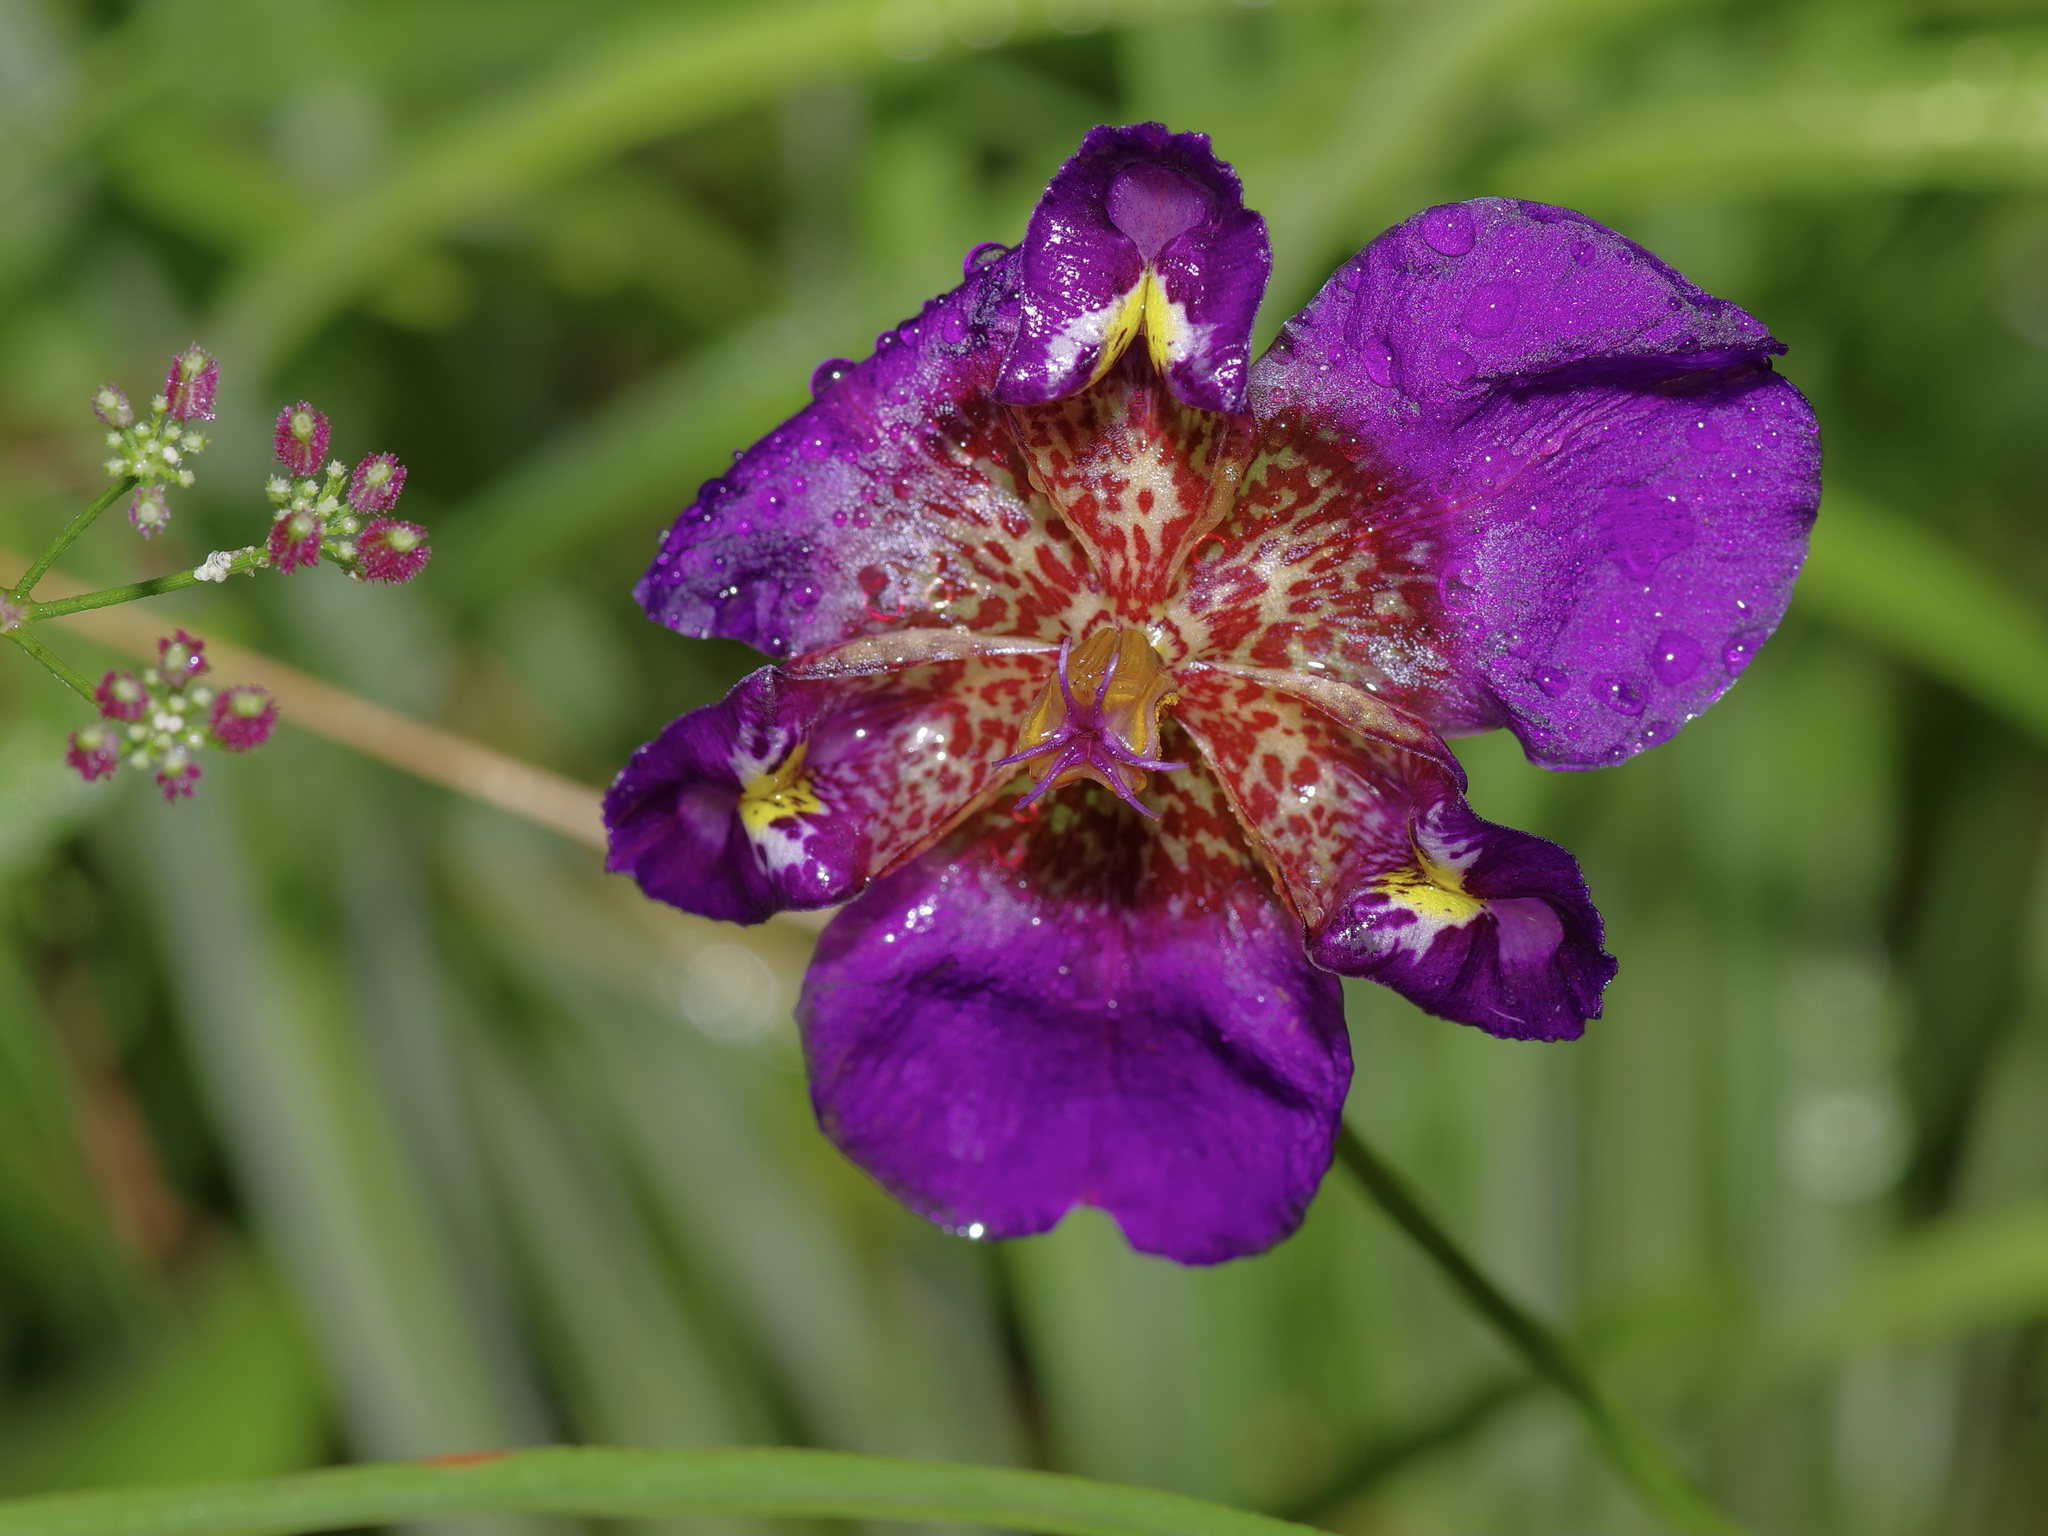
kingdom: Plantae
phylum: Tracheophyta
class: Liliopsida
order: Asparagales
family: Iridaceae
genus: Alophia
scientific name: Alophia drummondii
